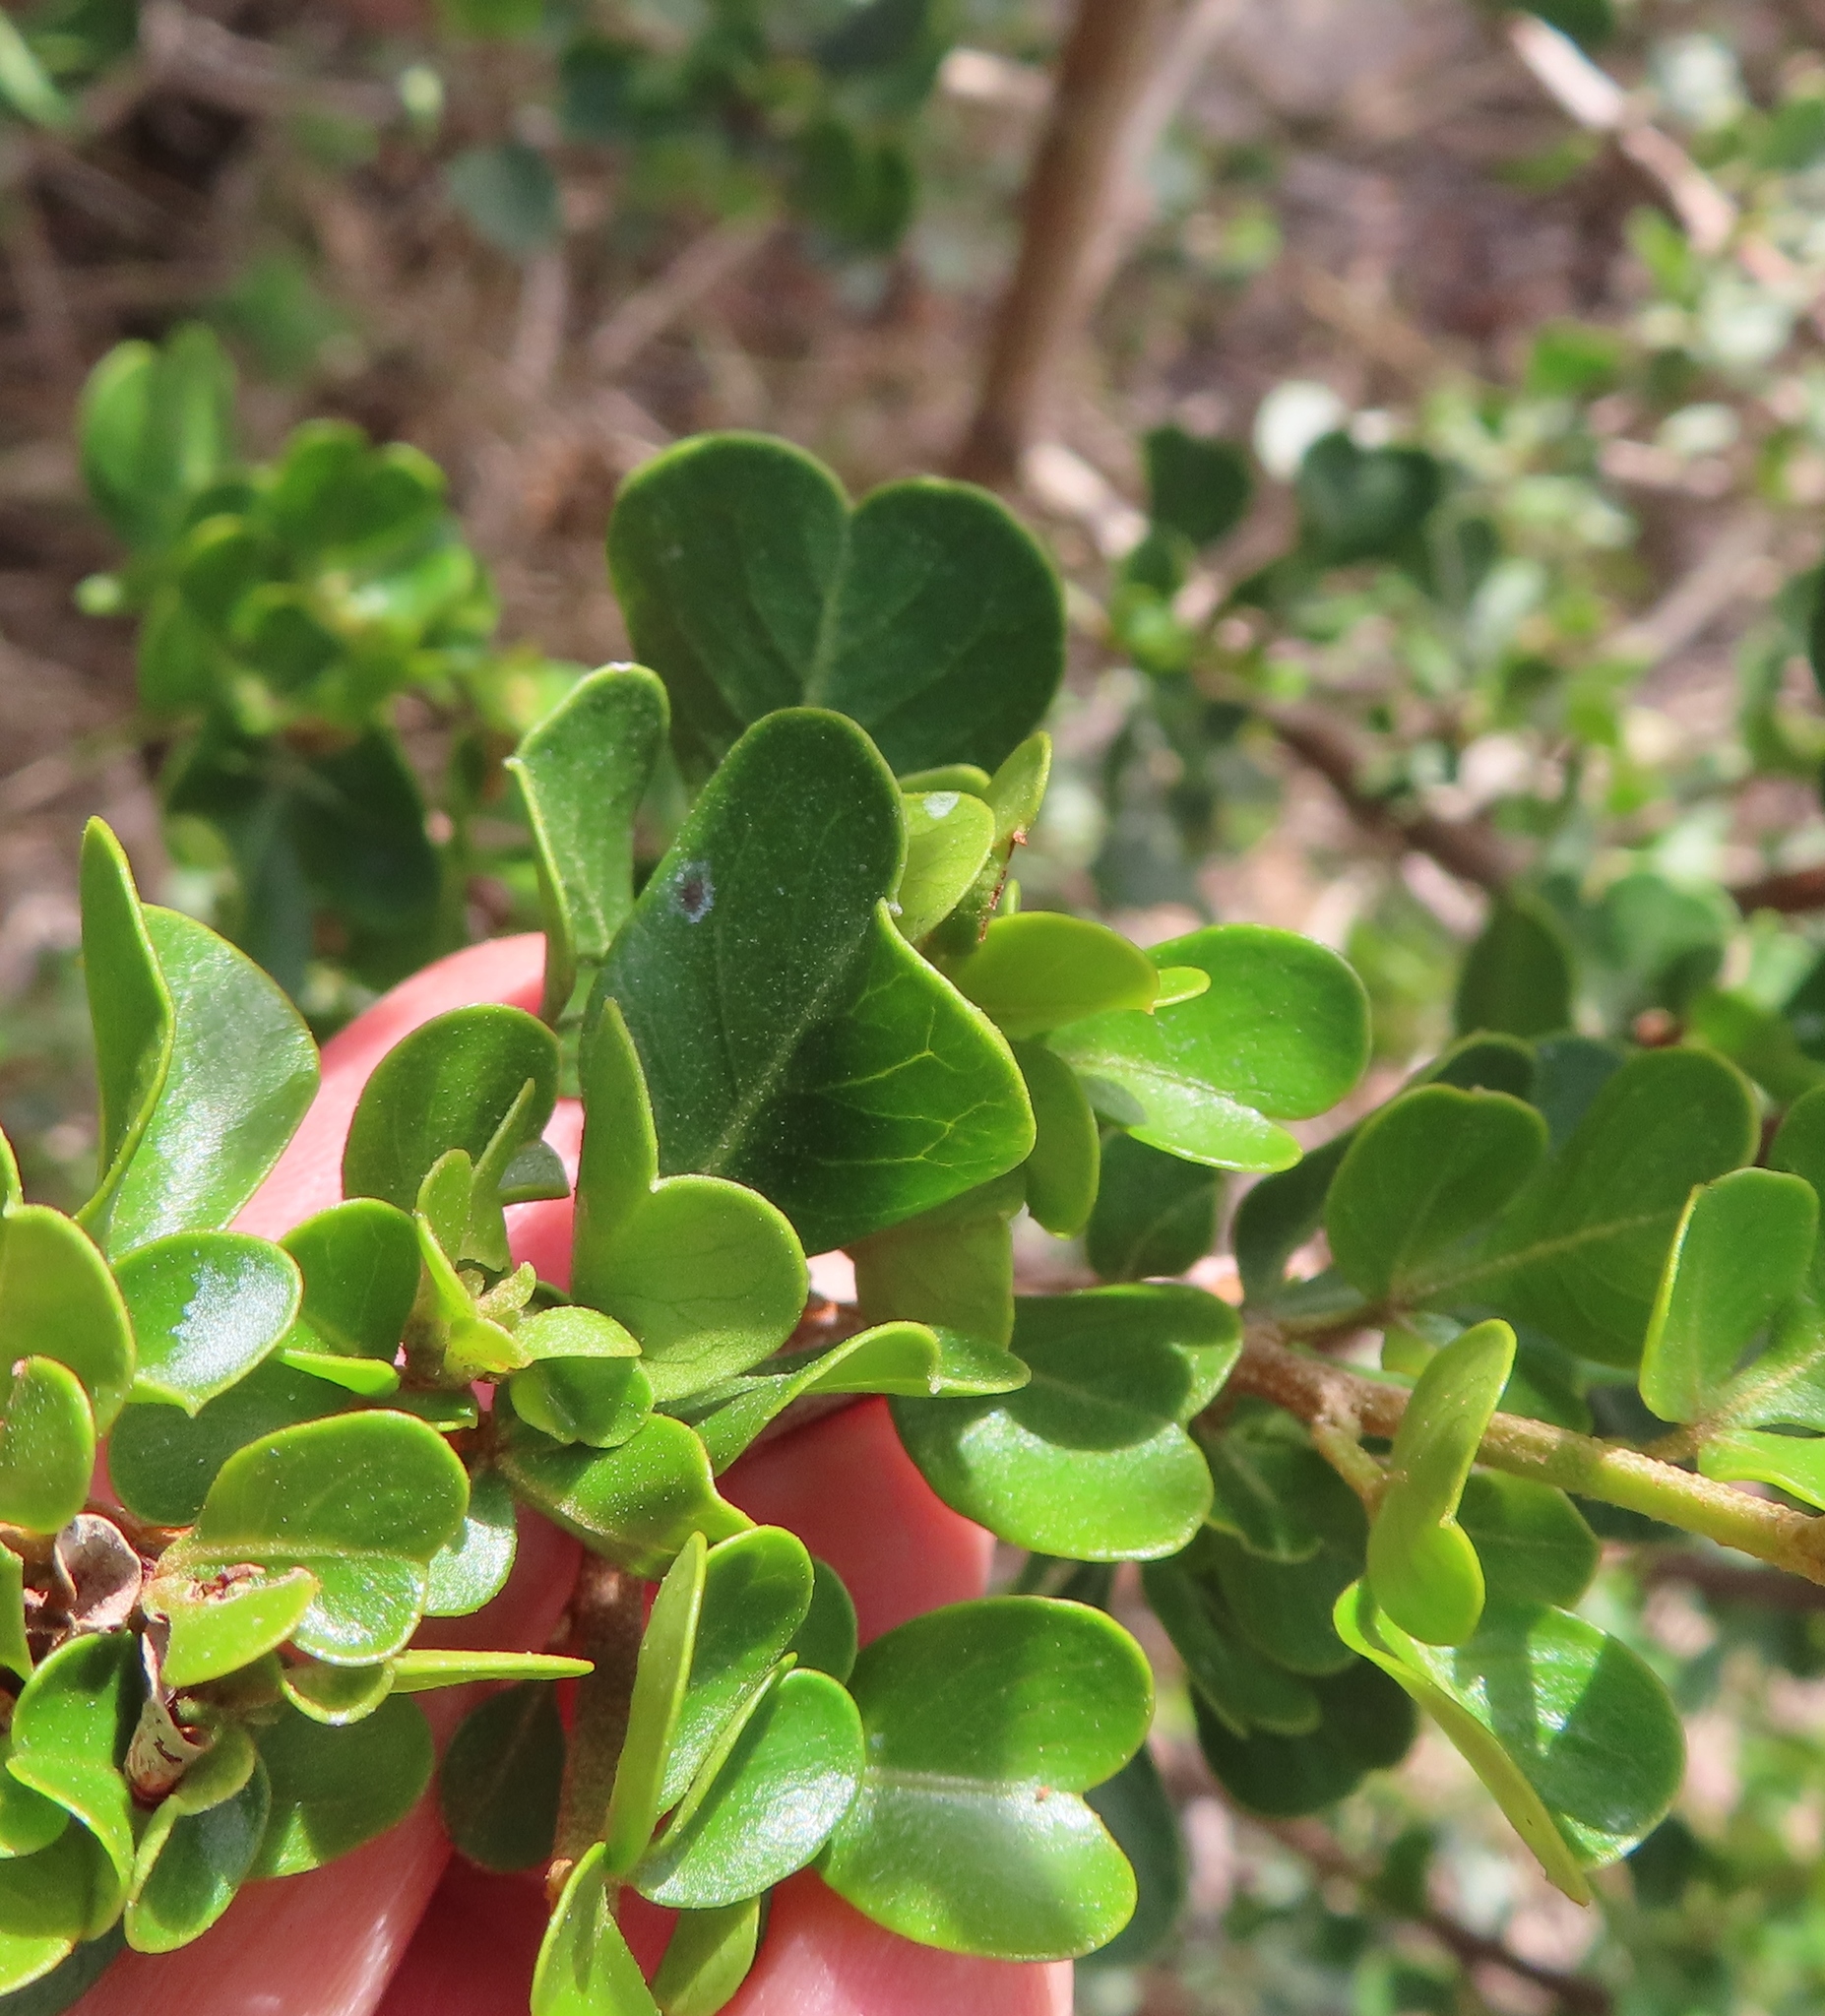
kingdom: Plantae
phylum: Tracheophyta
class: Magnoliopsida
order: Sapindales
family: Anacardiaceae
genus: Searsia
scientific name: Searsia glauca
